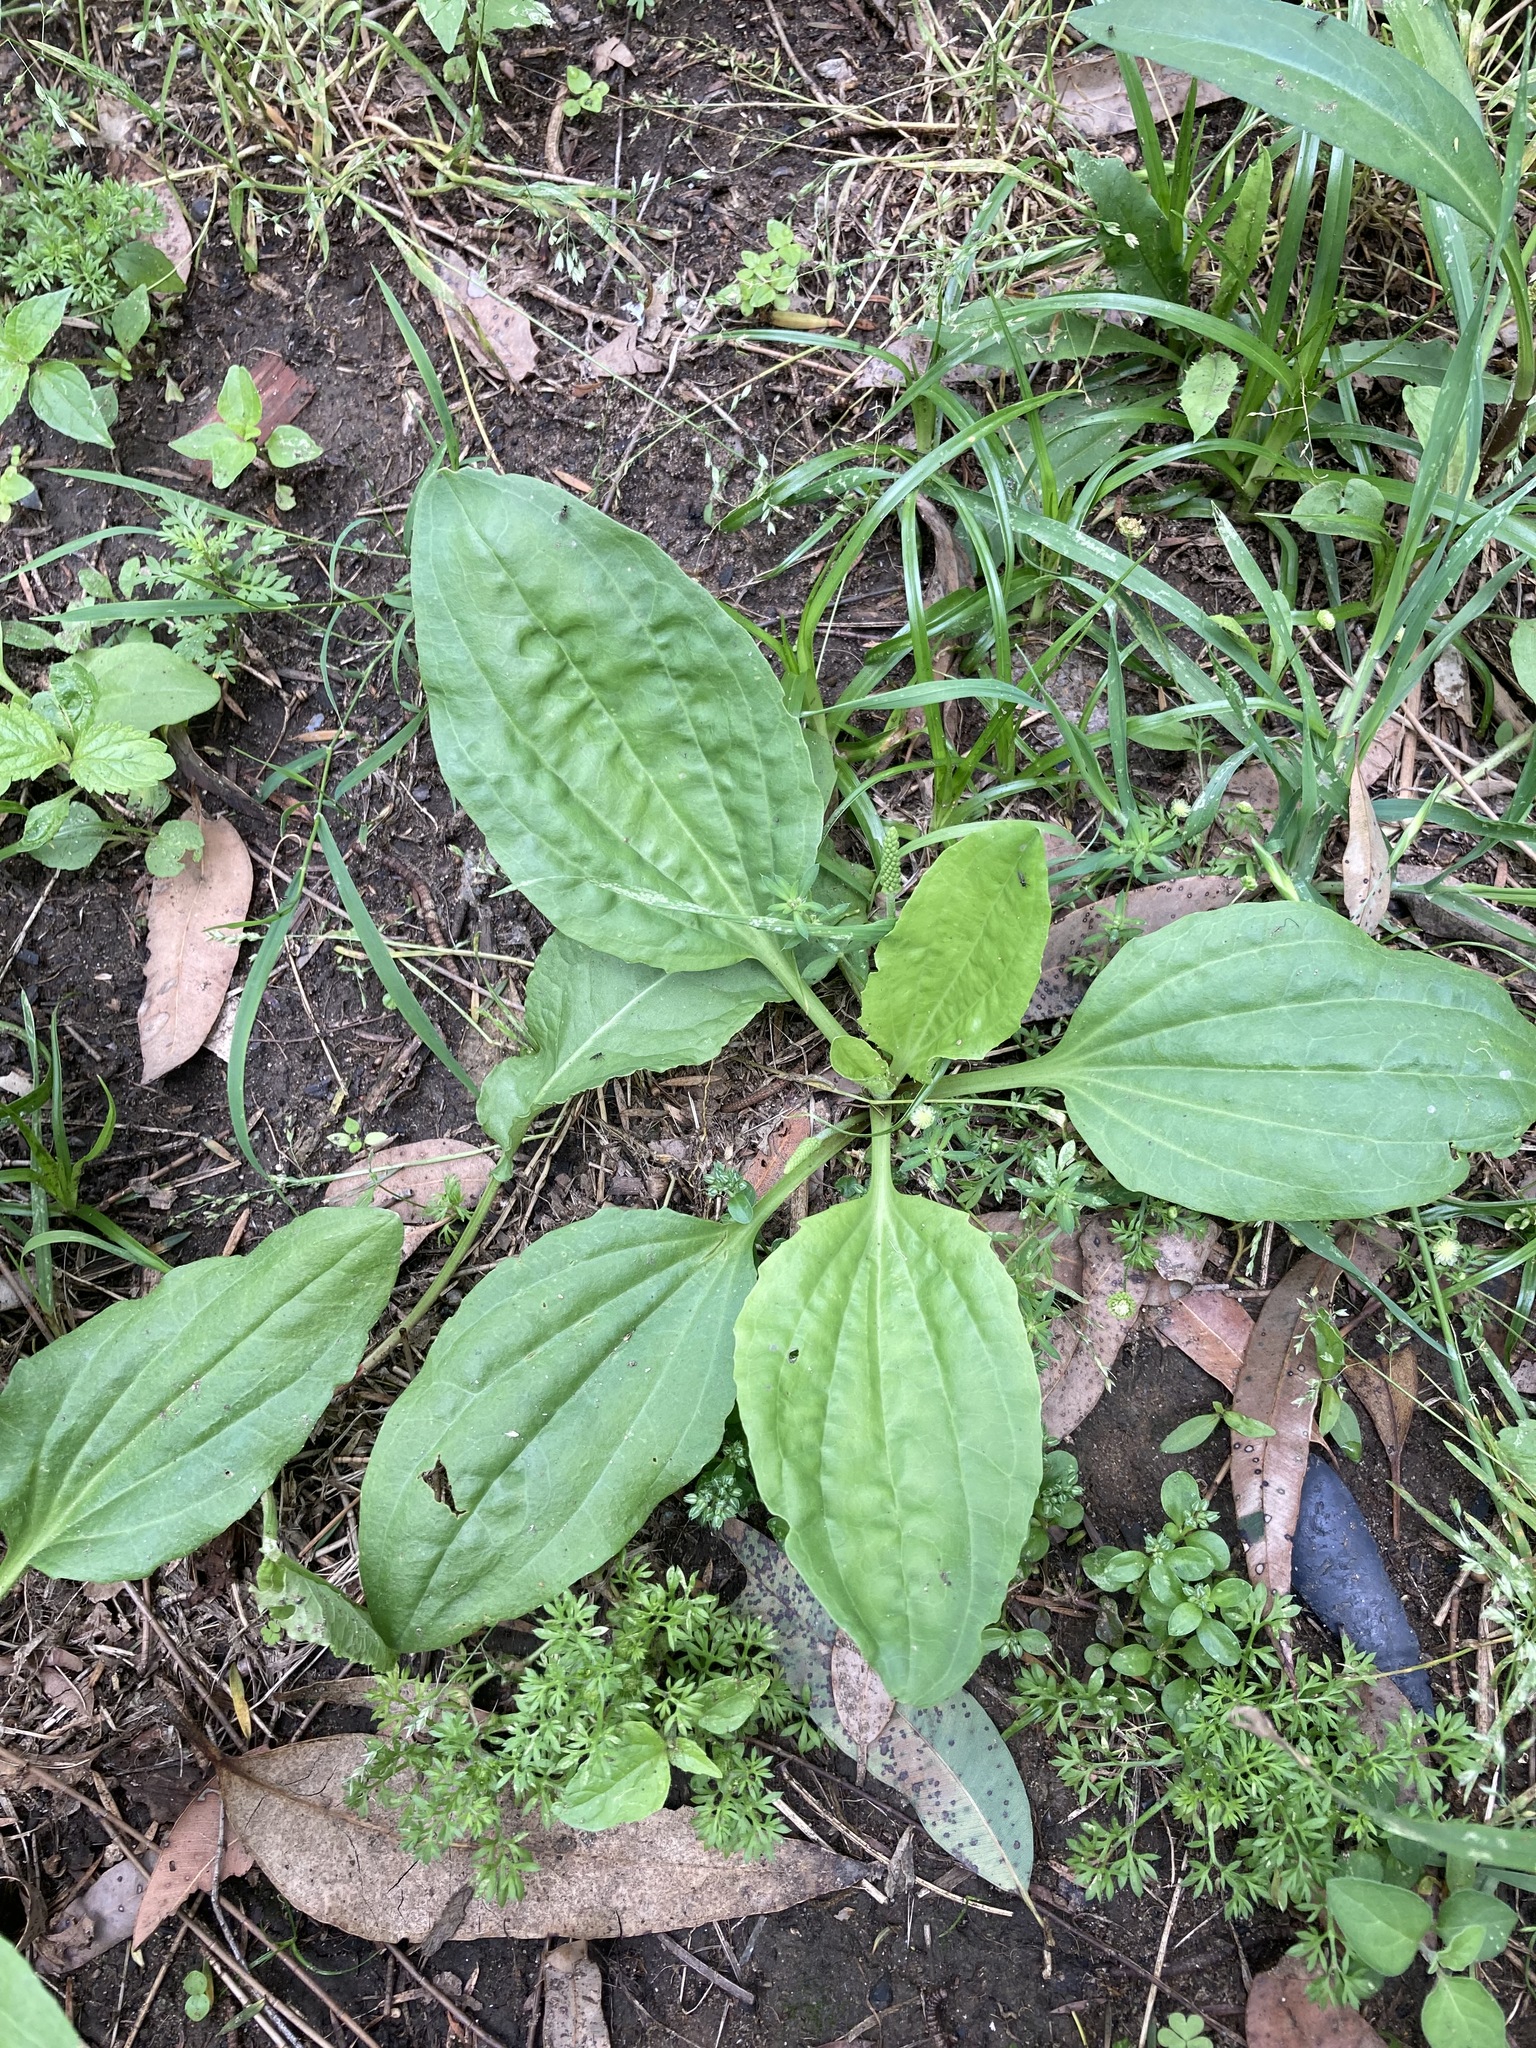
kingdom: Plantae
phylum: Tracheophyta
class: Magnoliopsida
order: Lamiales
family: Plantaginaceae
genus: Plantago
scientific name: Plantago major
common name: Common plantain
